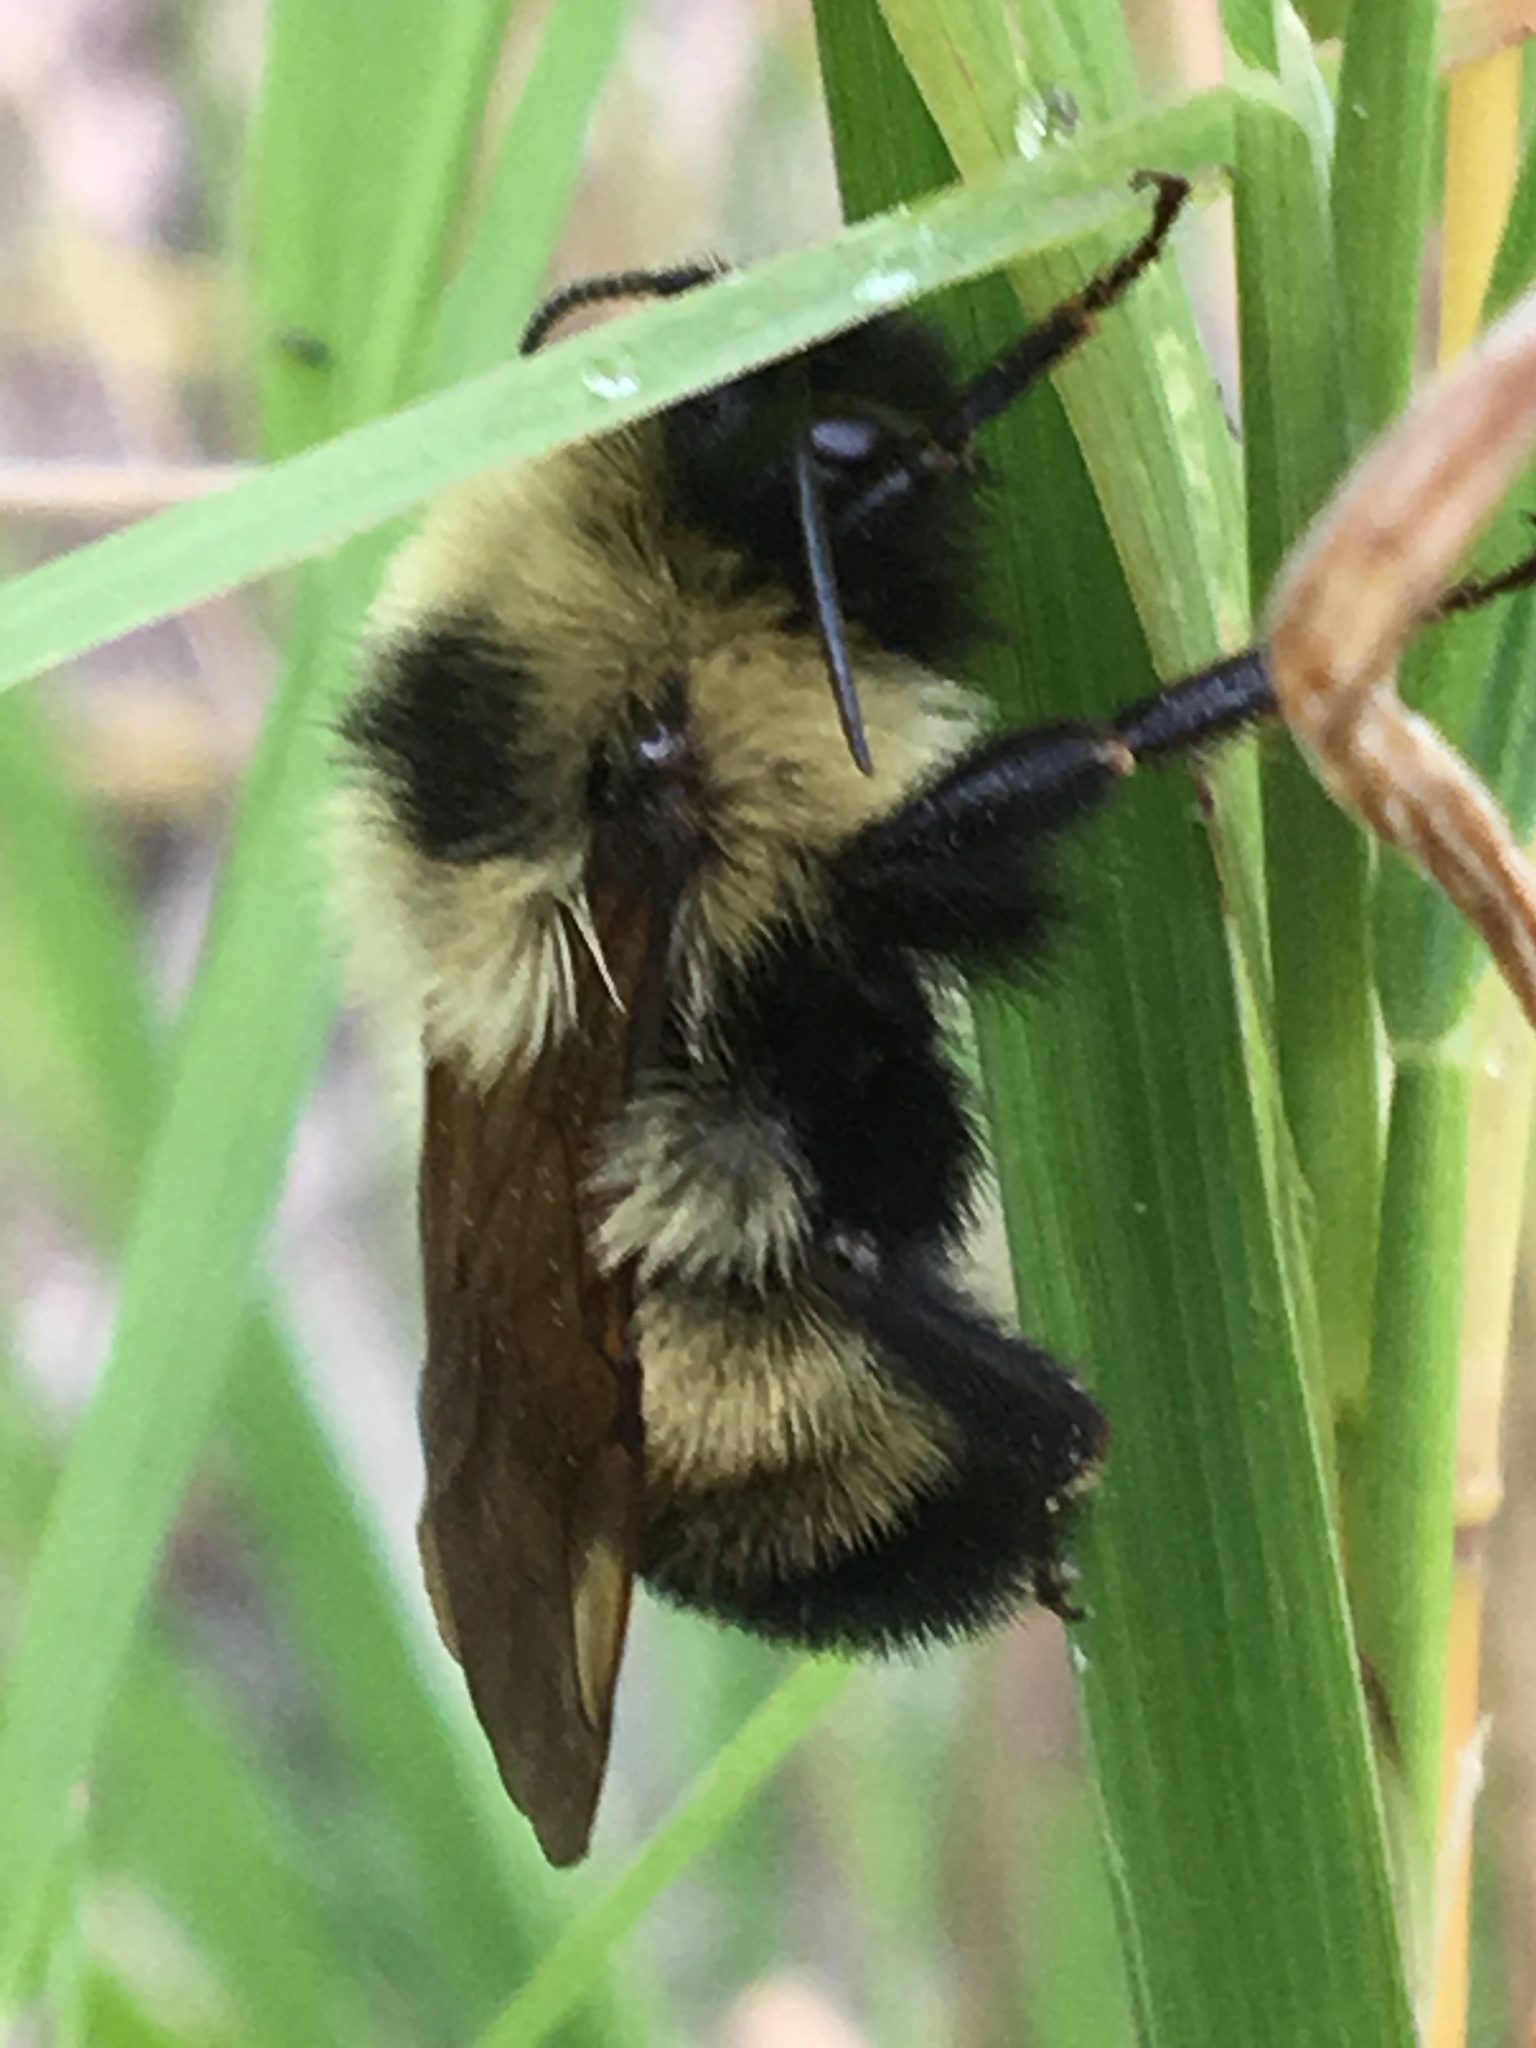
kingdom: Animalia
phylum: Arthropoda
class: Insecta
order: Hymenoptera
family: Apidae
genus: Bombus
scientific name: Bombus citrinus
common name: Lemon cuckoo bumble bee
